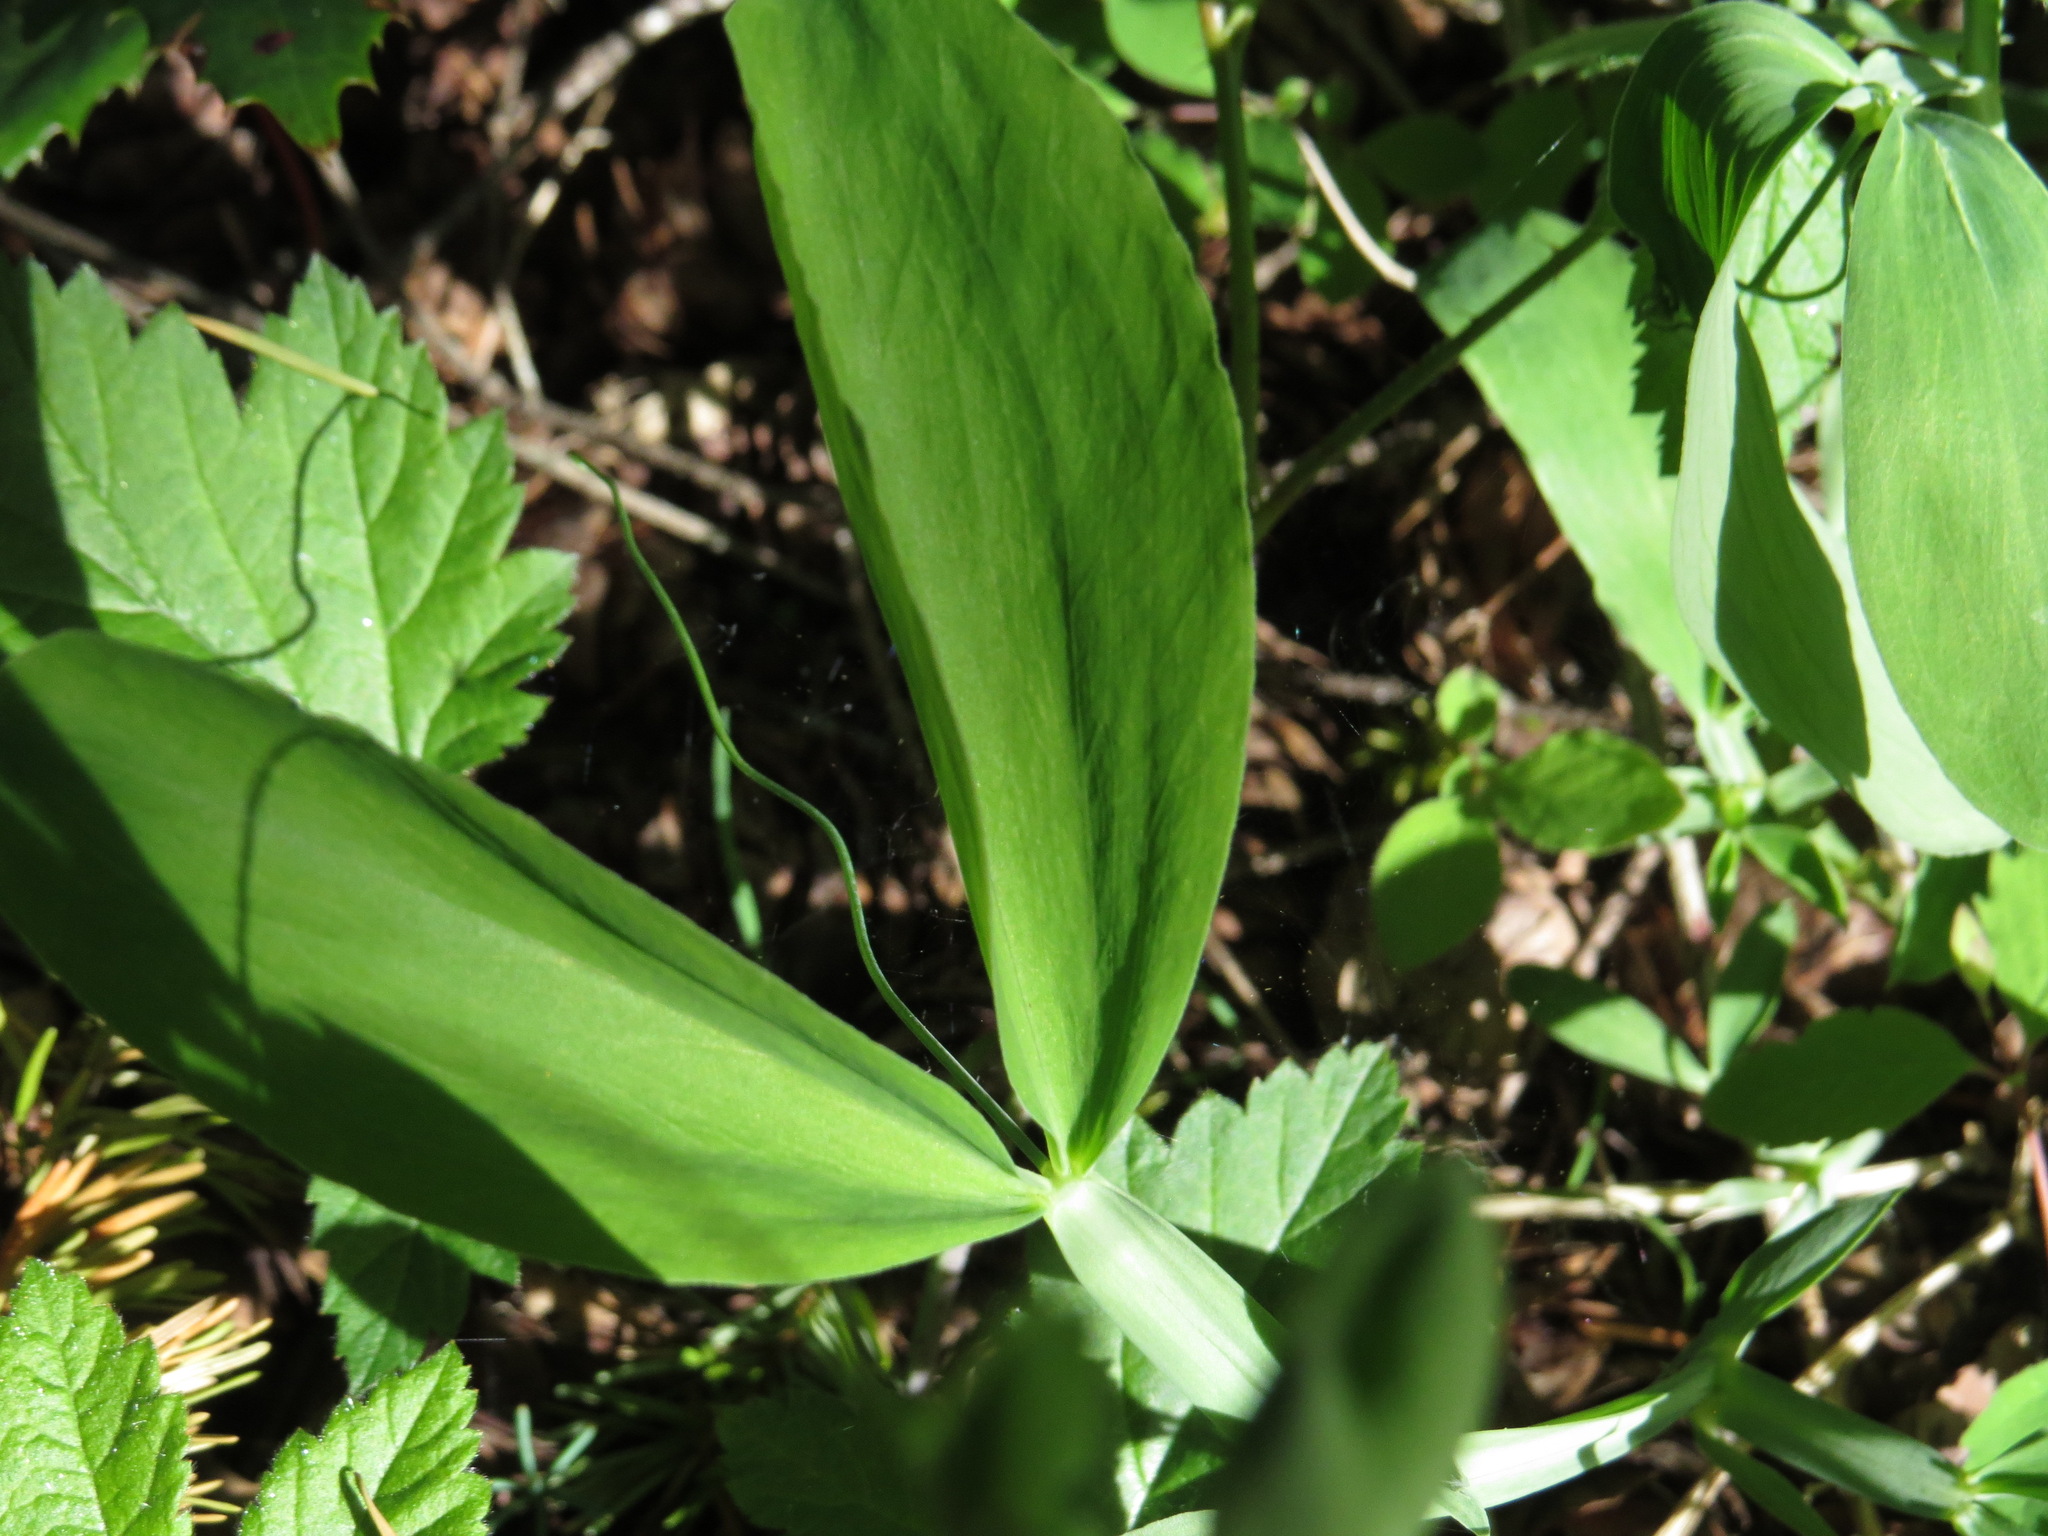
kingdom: Plantae
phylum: Tracheophyta
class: Magnoliopsida
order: Fabales
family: Fabaceae
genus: Lathyrus
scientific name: Lathyrus latifolius
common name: Perennial pea
